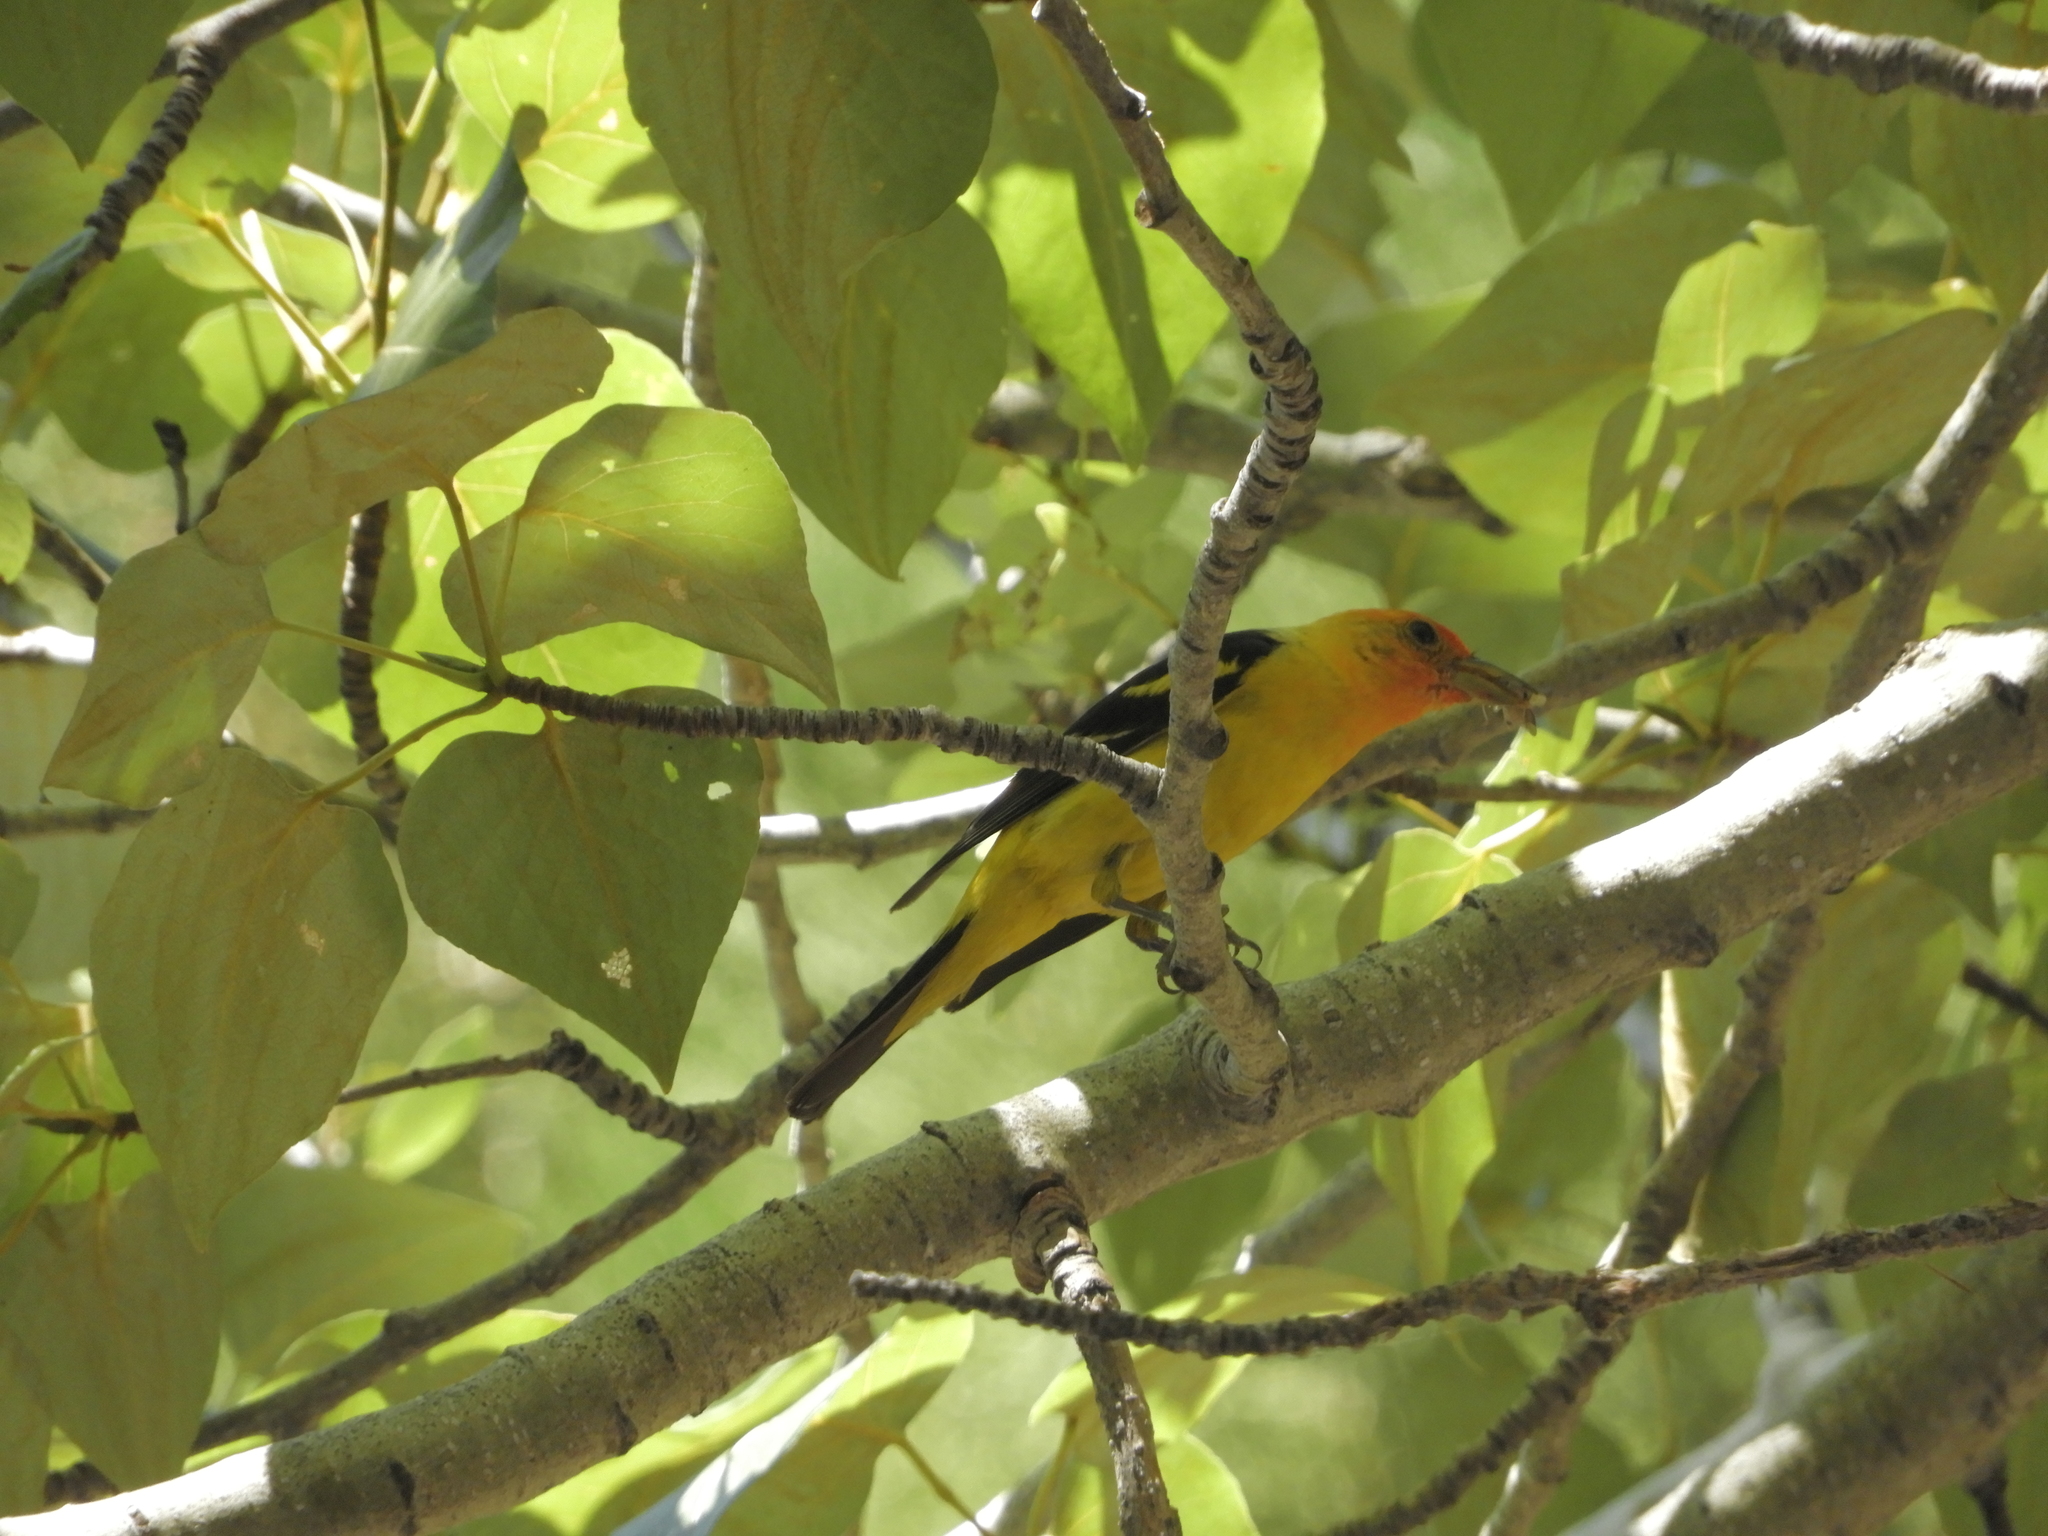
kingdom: Animalia
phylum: Chordata
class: Aves
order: Passeriformes
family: Cardinalidae
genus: Piranga
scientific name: Piranga ludoviciana
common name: Western tanager
